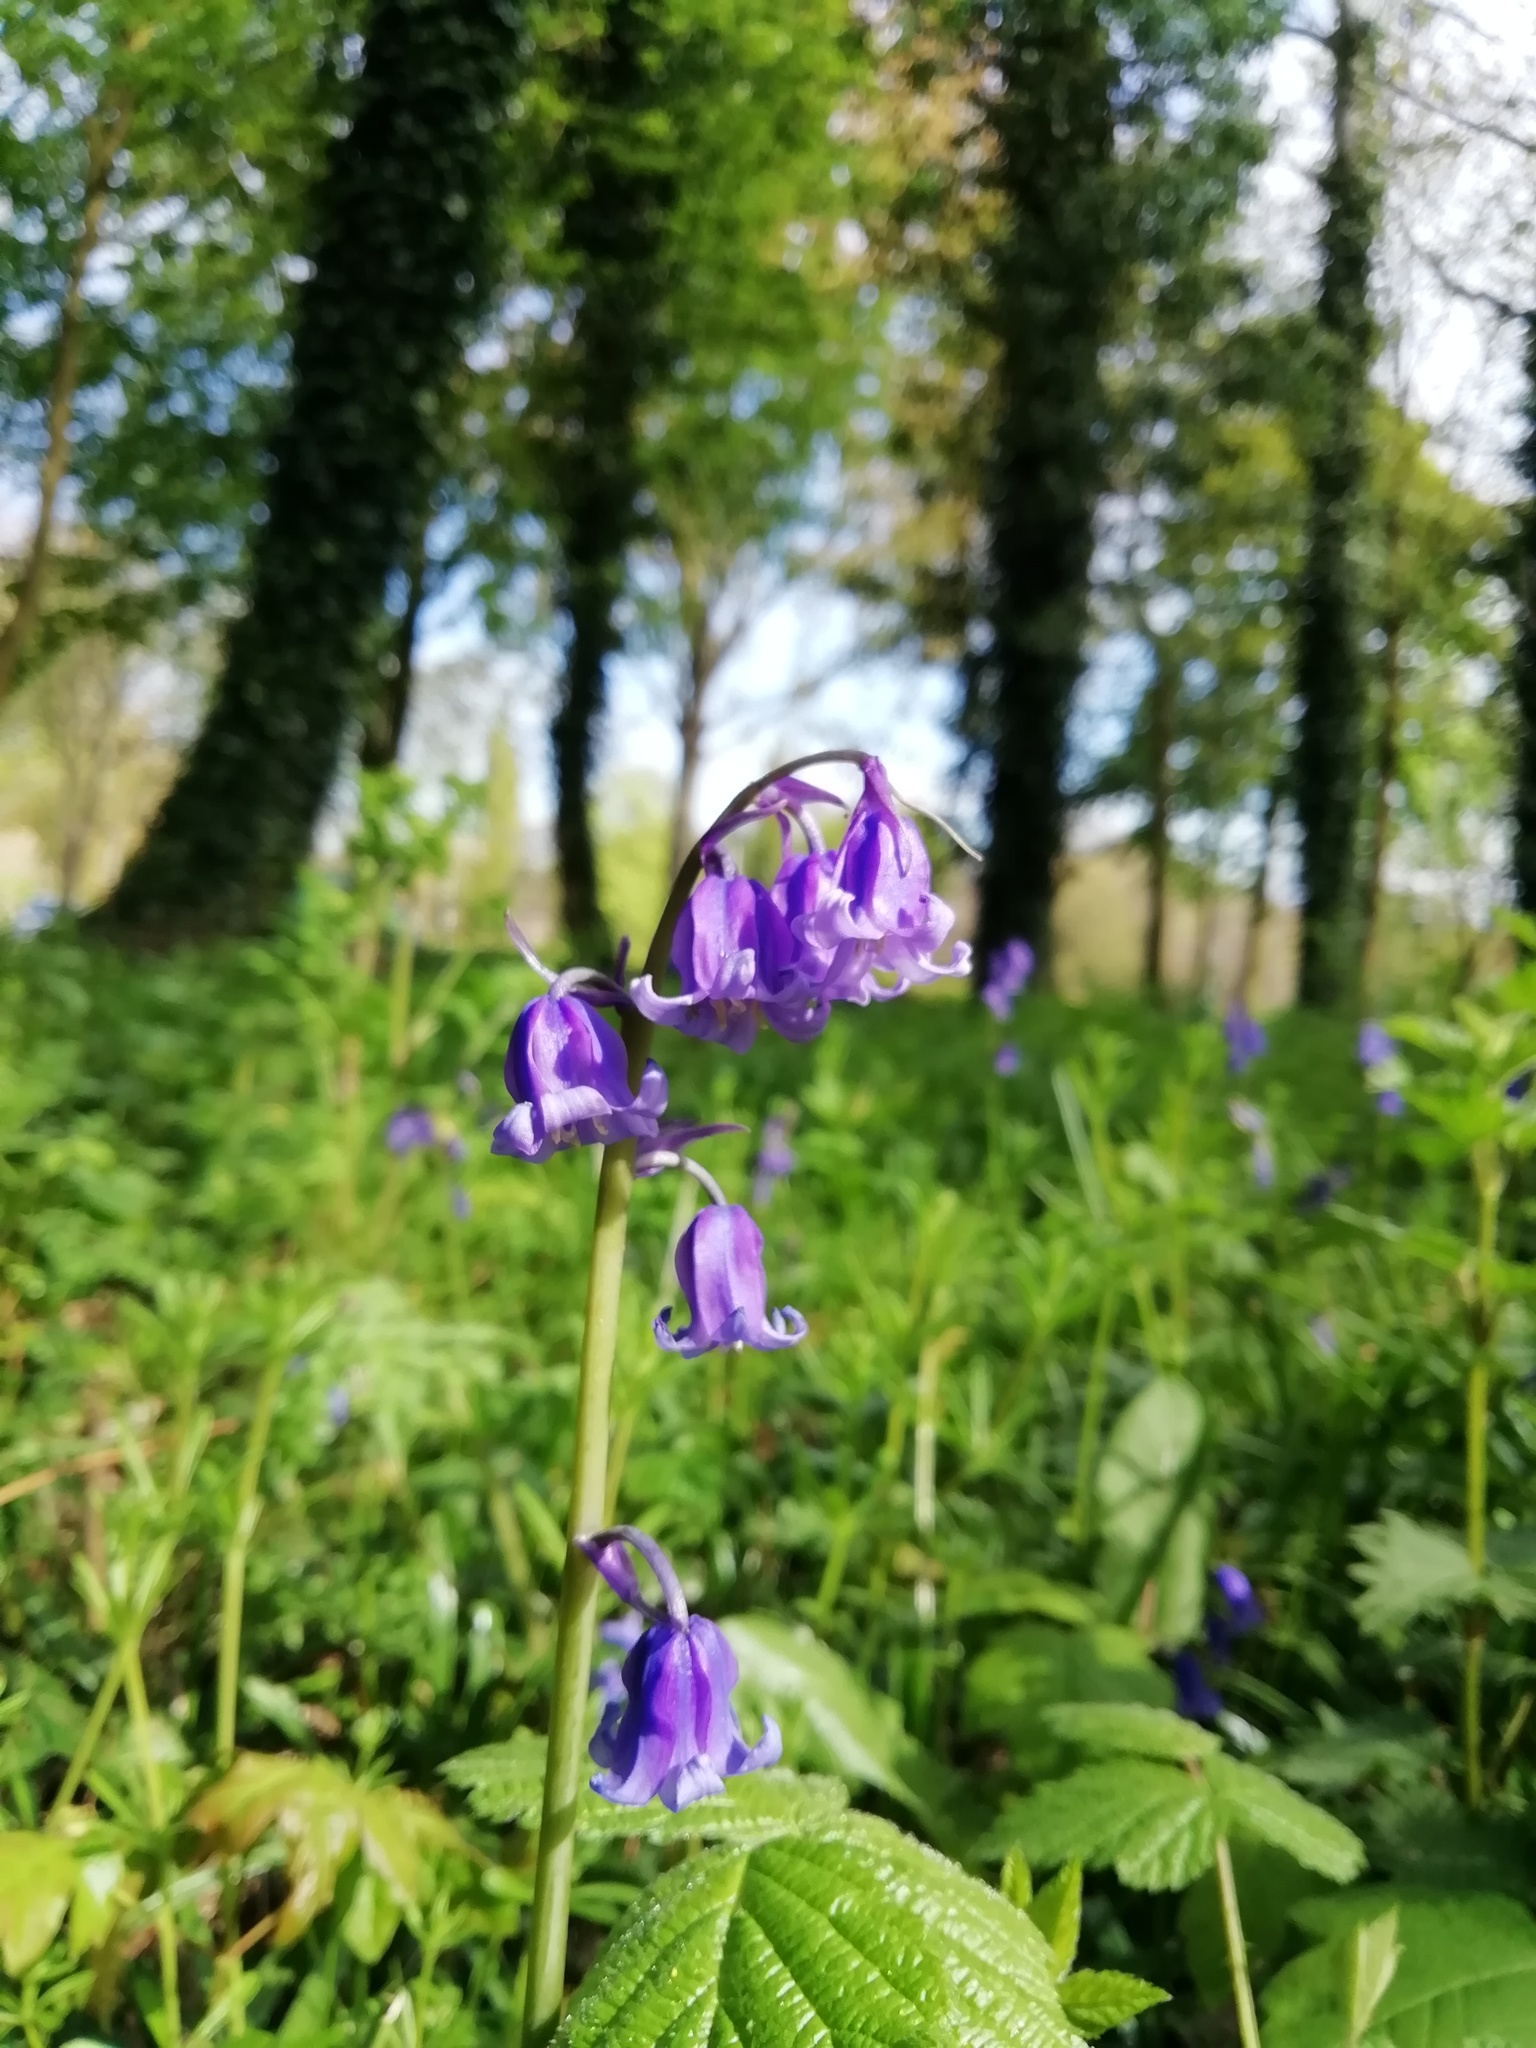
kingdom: Plantae
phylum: Tracheophyta
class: Liliopsida
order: Asparagales
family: Asparagaceae
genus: Hyacinthoides
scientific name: Hyacinthoides non-scripta
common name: Bluebell
